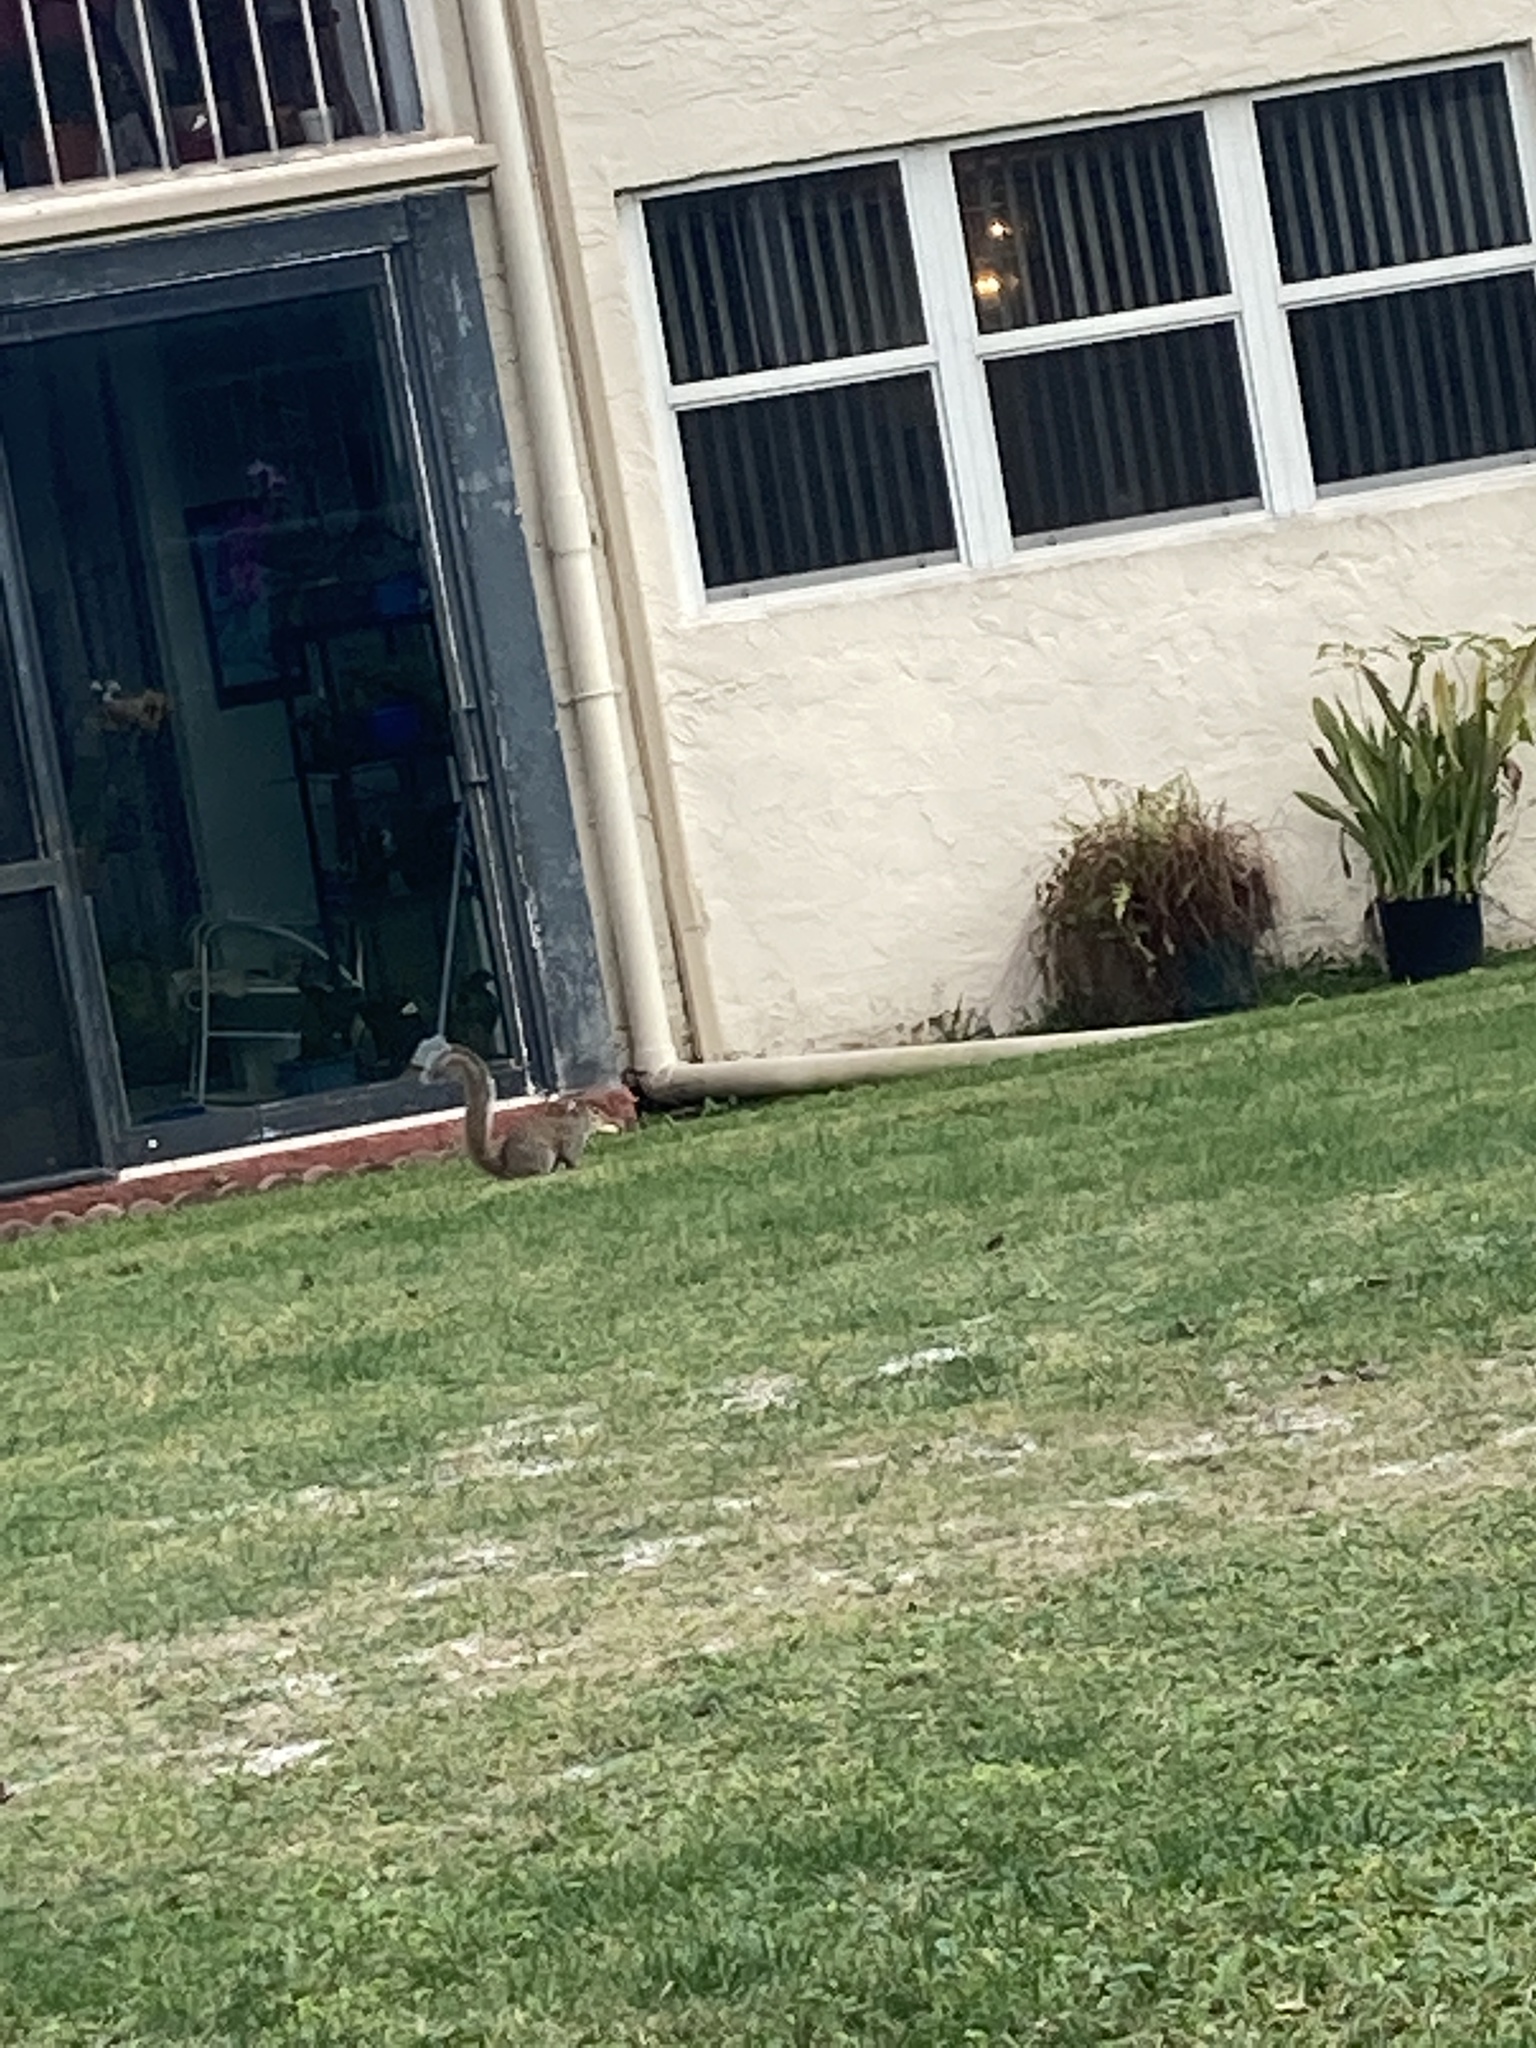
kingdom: Animalia
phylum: Chordata
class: Mammalia
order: Rodentia
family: Sciuridae
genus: Sciurus
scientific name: Sciurus carolinensis
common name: Eastern gray squirrel
